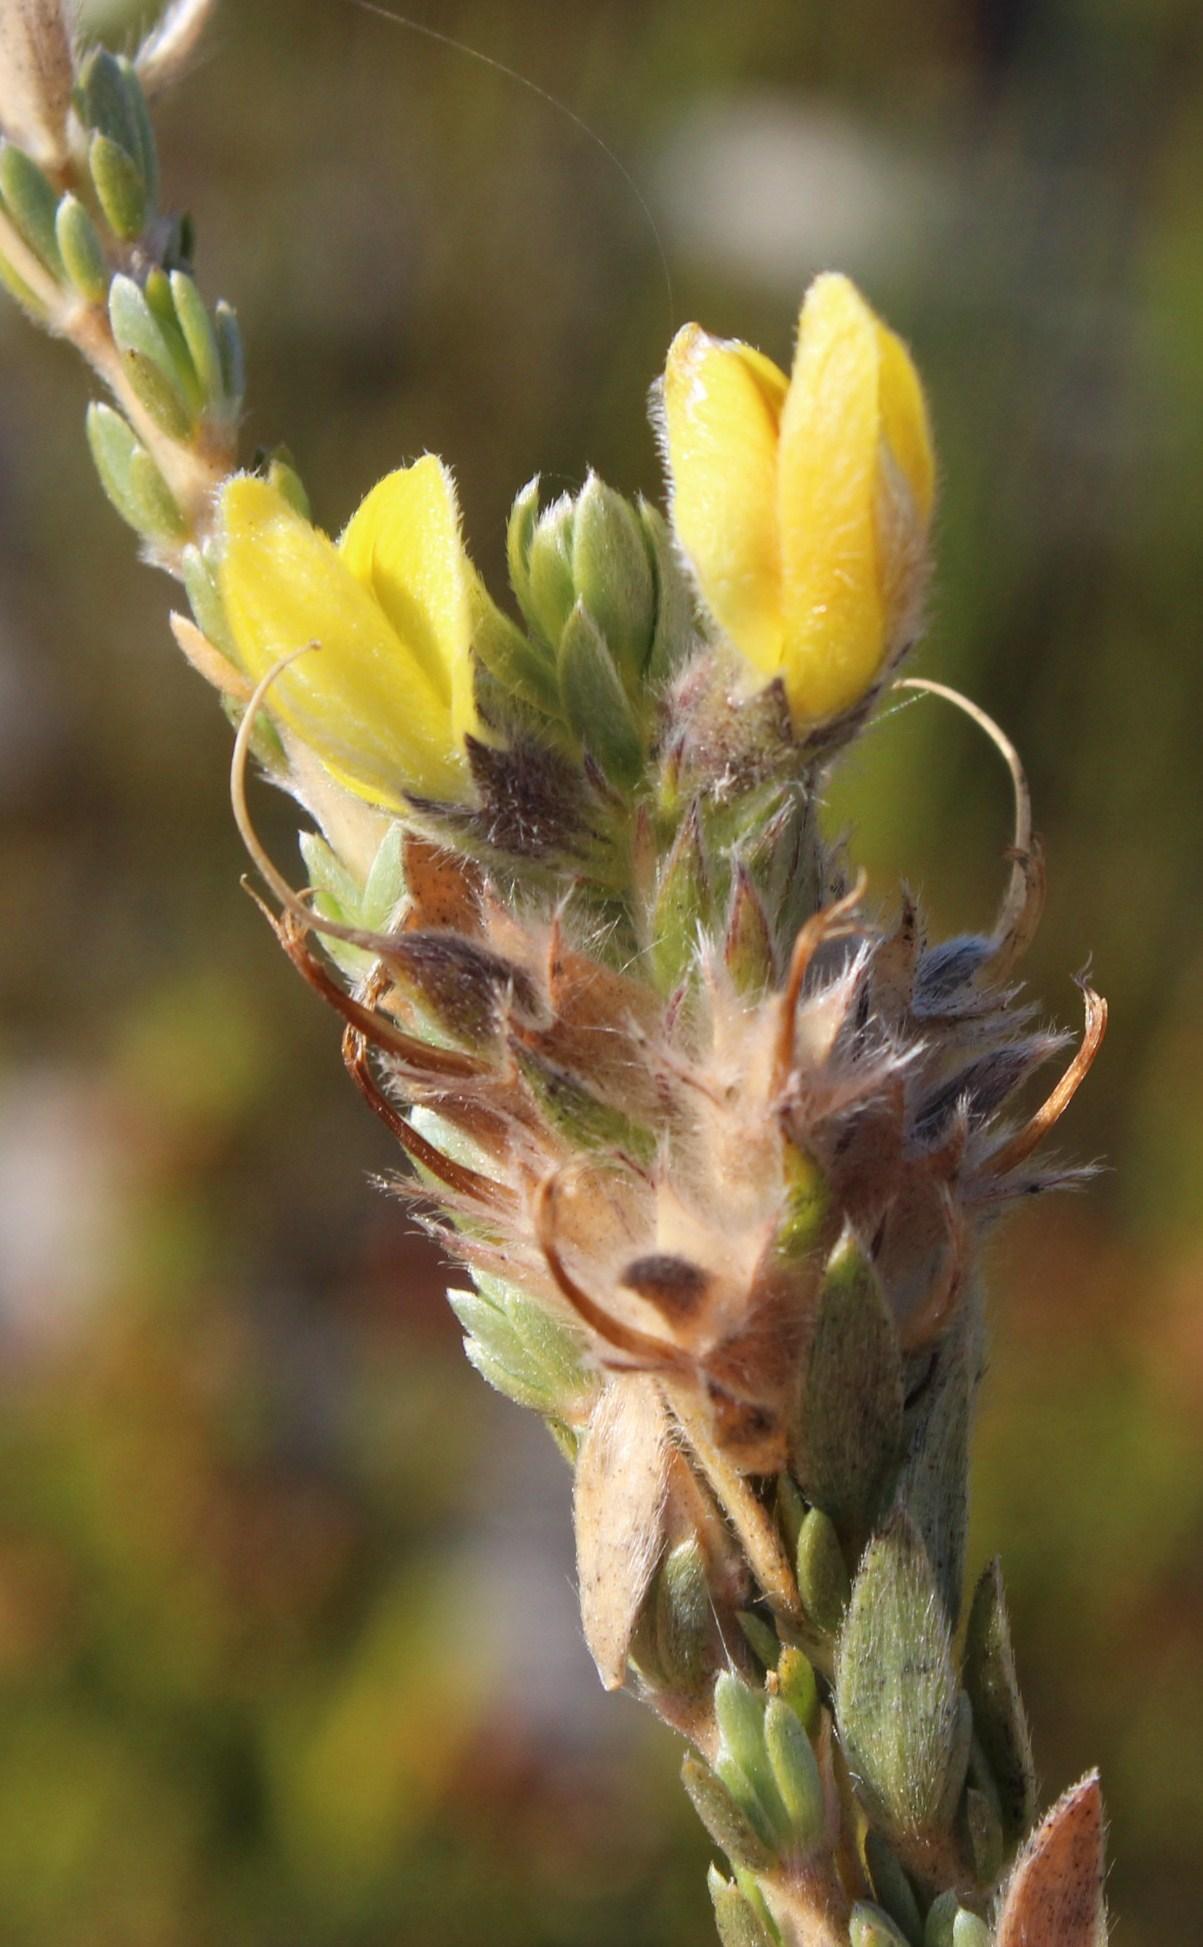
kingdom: Plantae
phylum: Tracheophyta
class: Magnoliopsida
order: Fabales
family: Fabaceae
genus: Aspalathus
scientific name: Aspalathus sericea
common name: Silky pea
